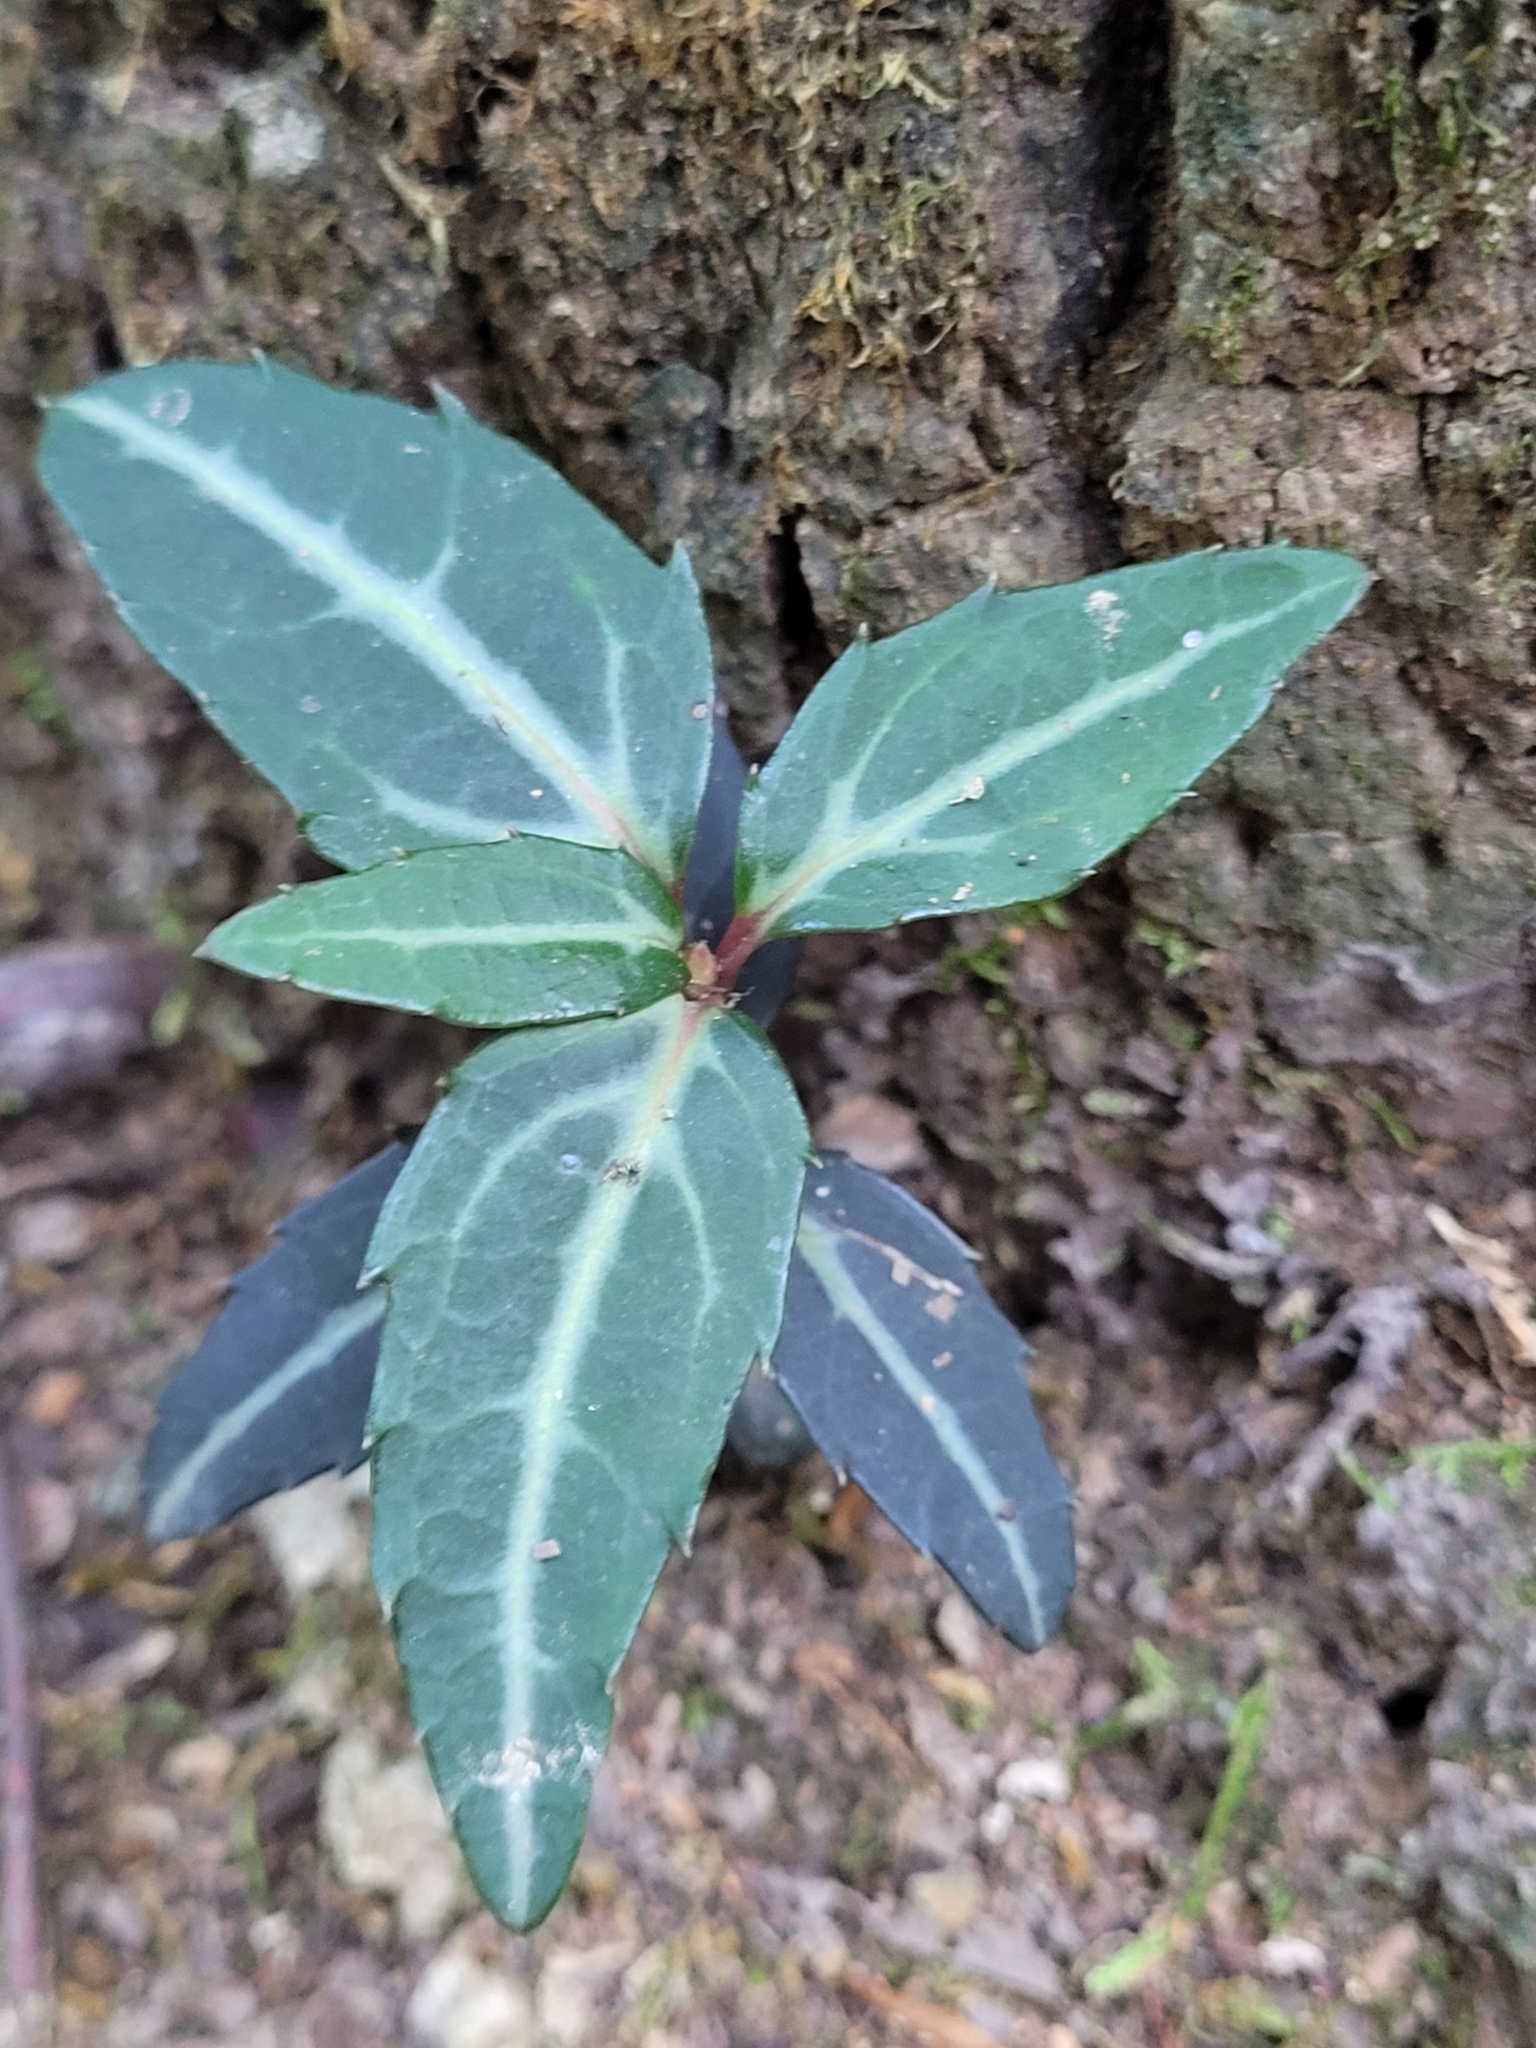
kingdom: Plantae
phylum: Tracheophyta
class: Magnoliopsida
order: Ericales
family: Ericaceae
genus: Chimaphila
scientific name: Chimaphila maculata
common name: Spotted pipsissewa
